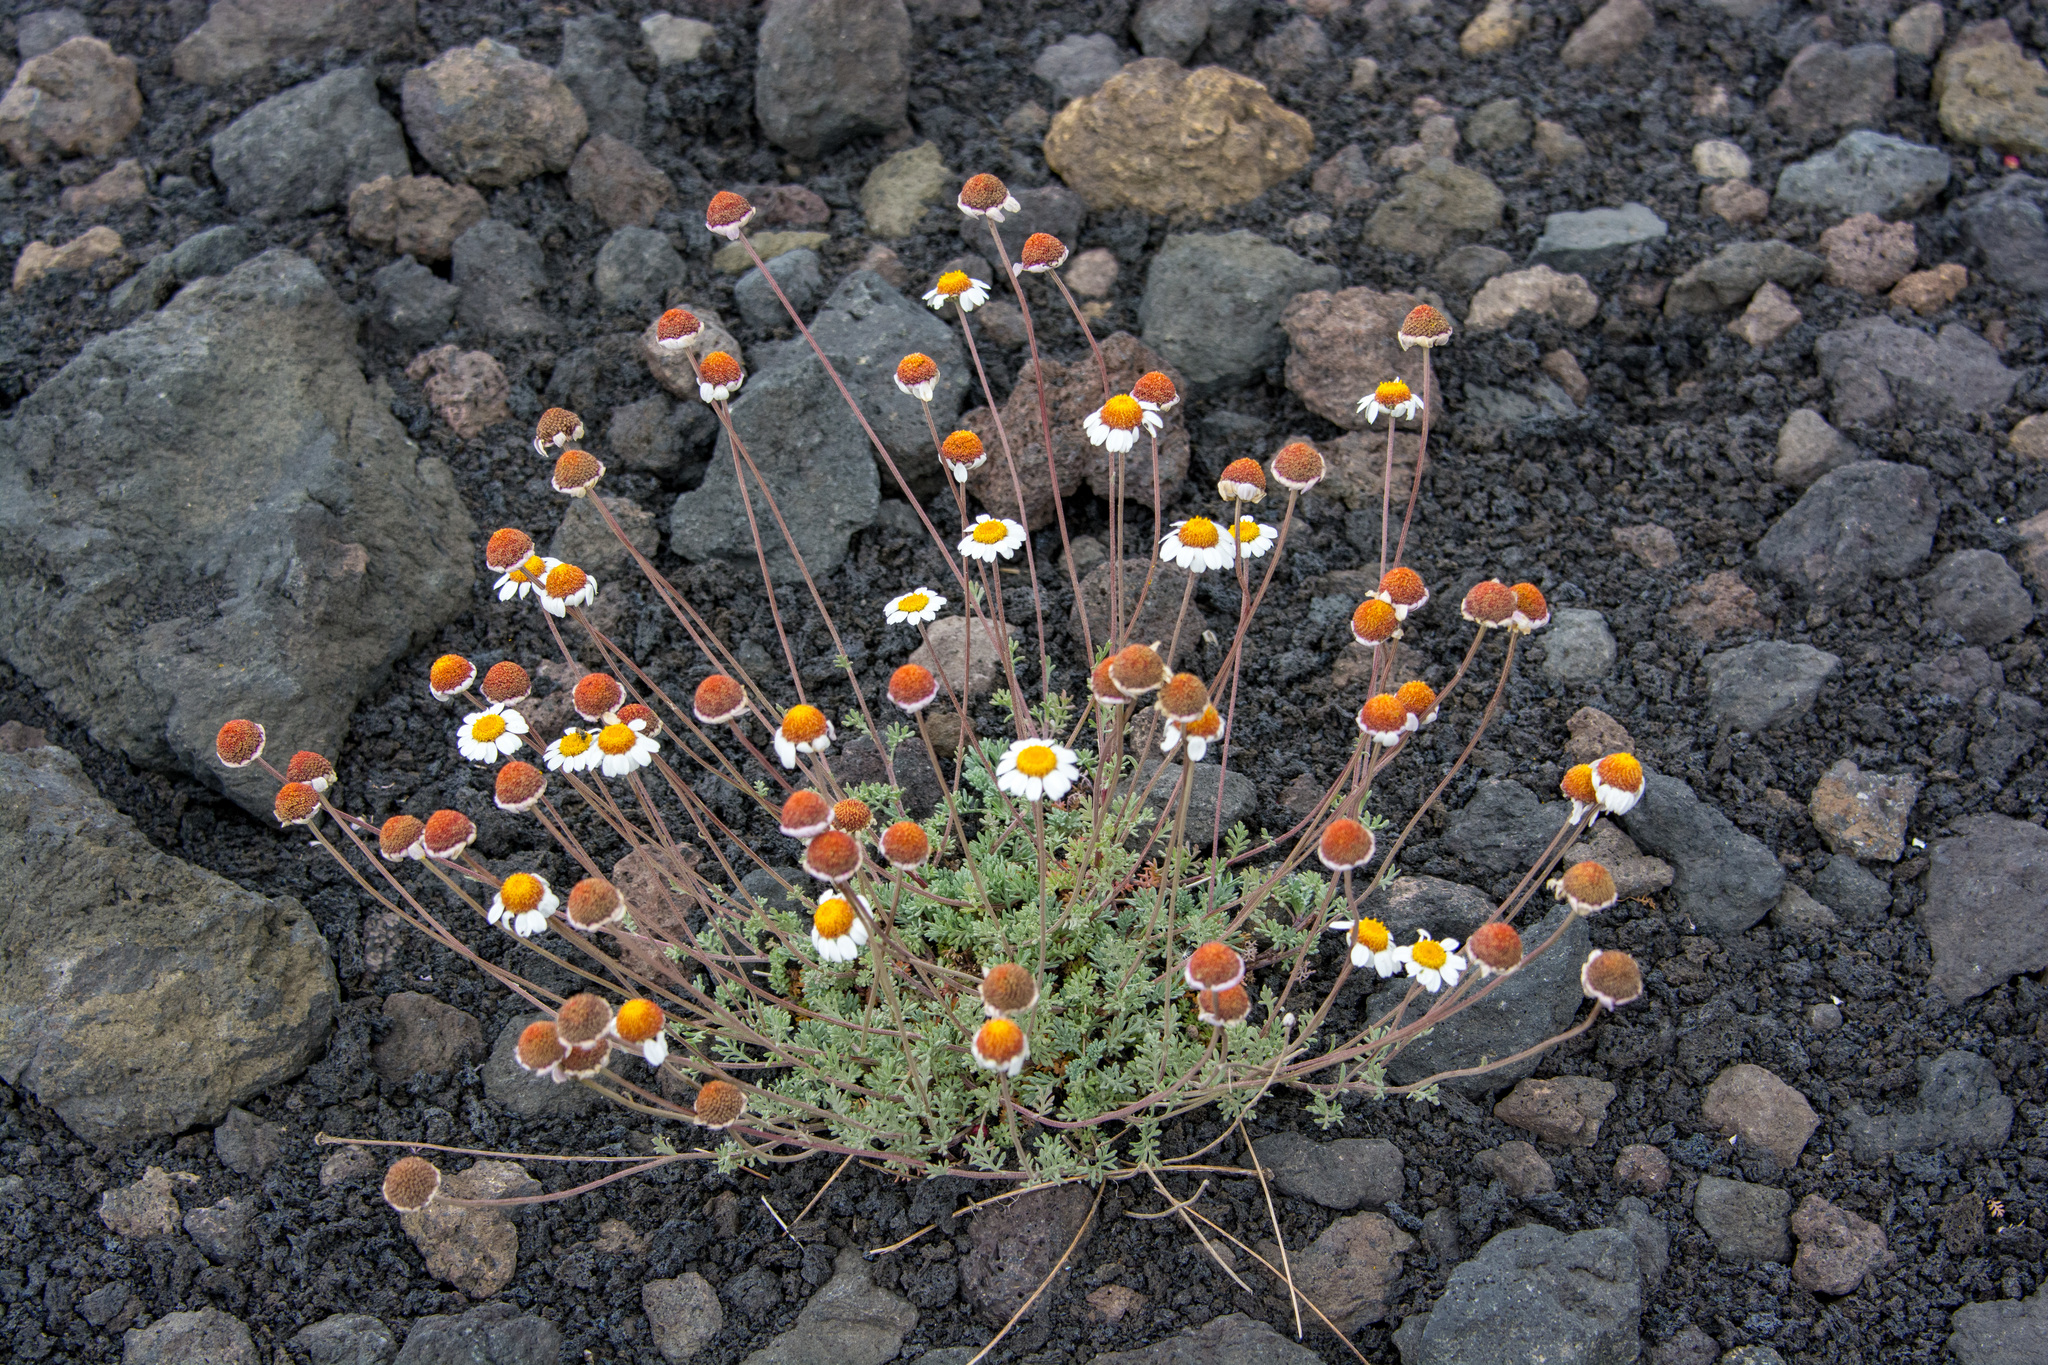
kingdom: Plantae
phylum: Tracheophyta
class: Magnoliopsida
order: Asterales
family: Asteraceae
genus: Anthemis
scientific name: Anthemis aetnensis
